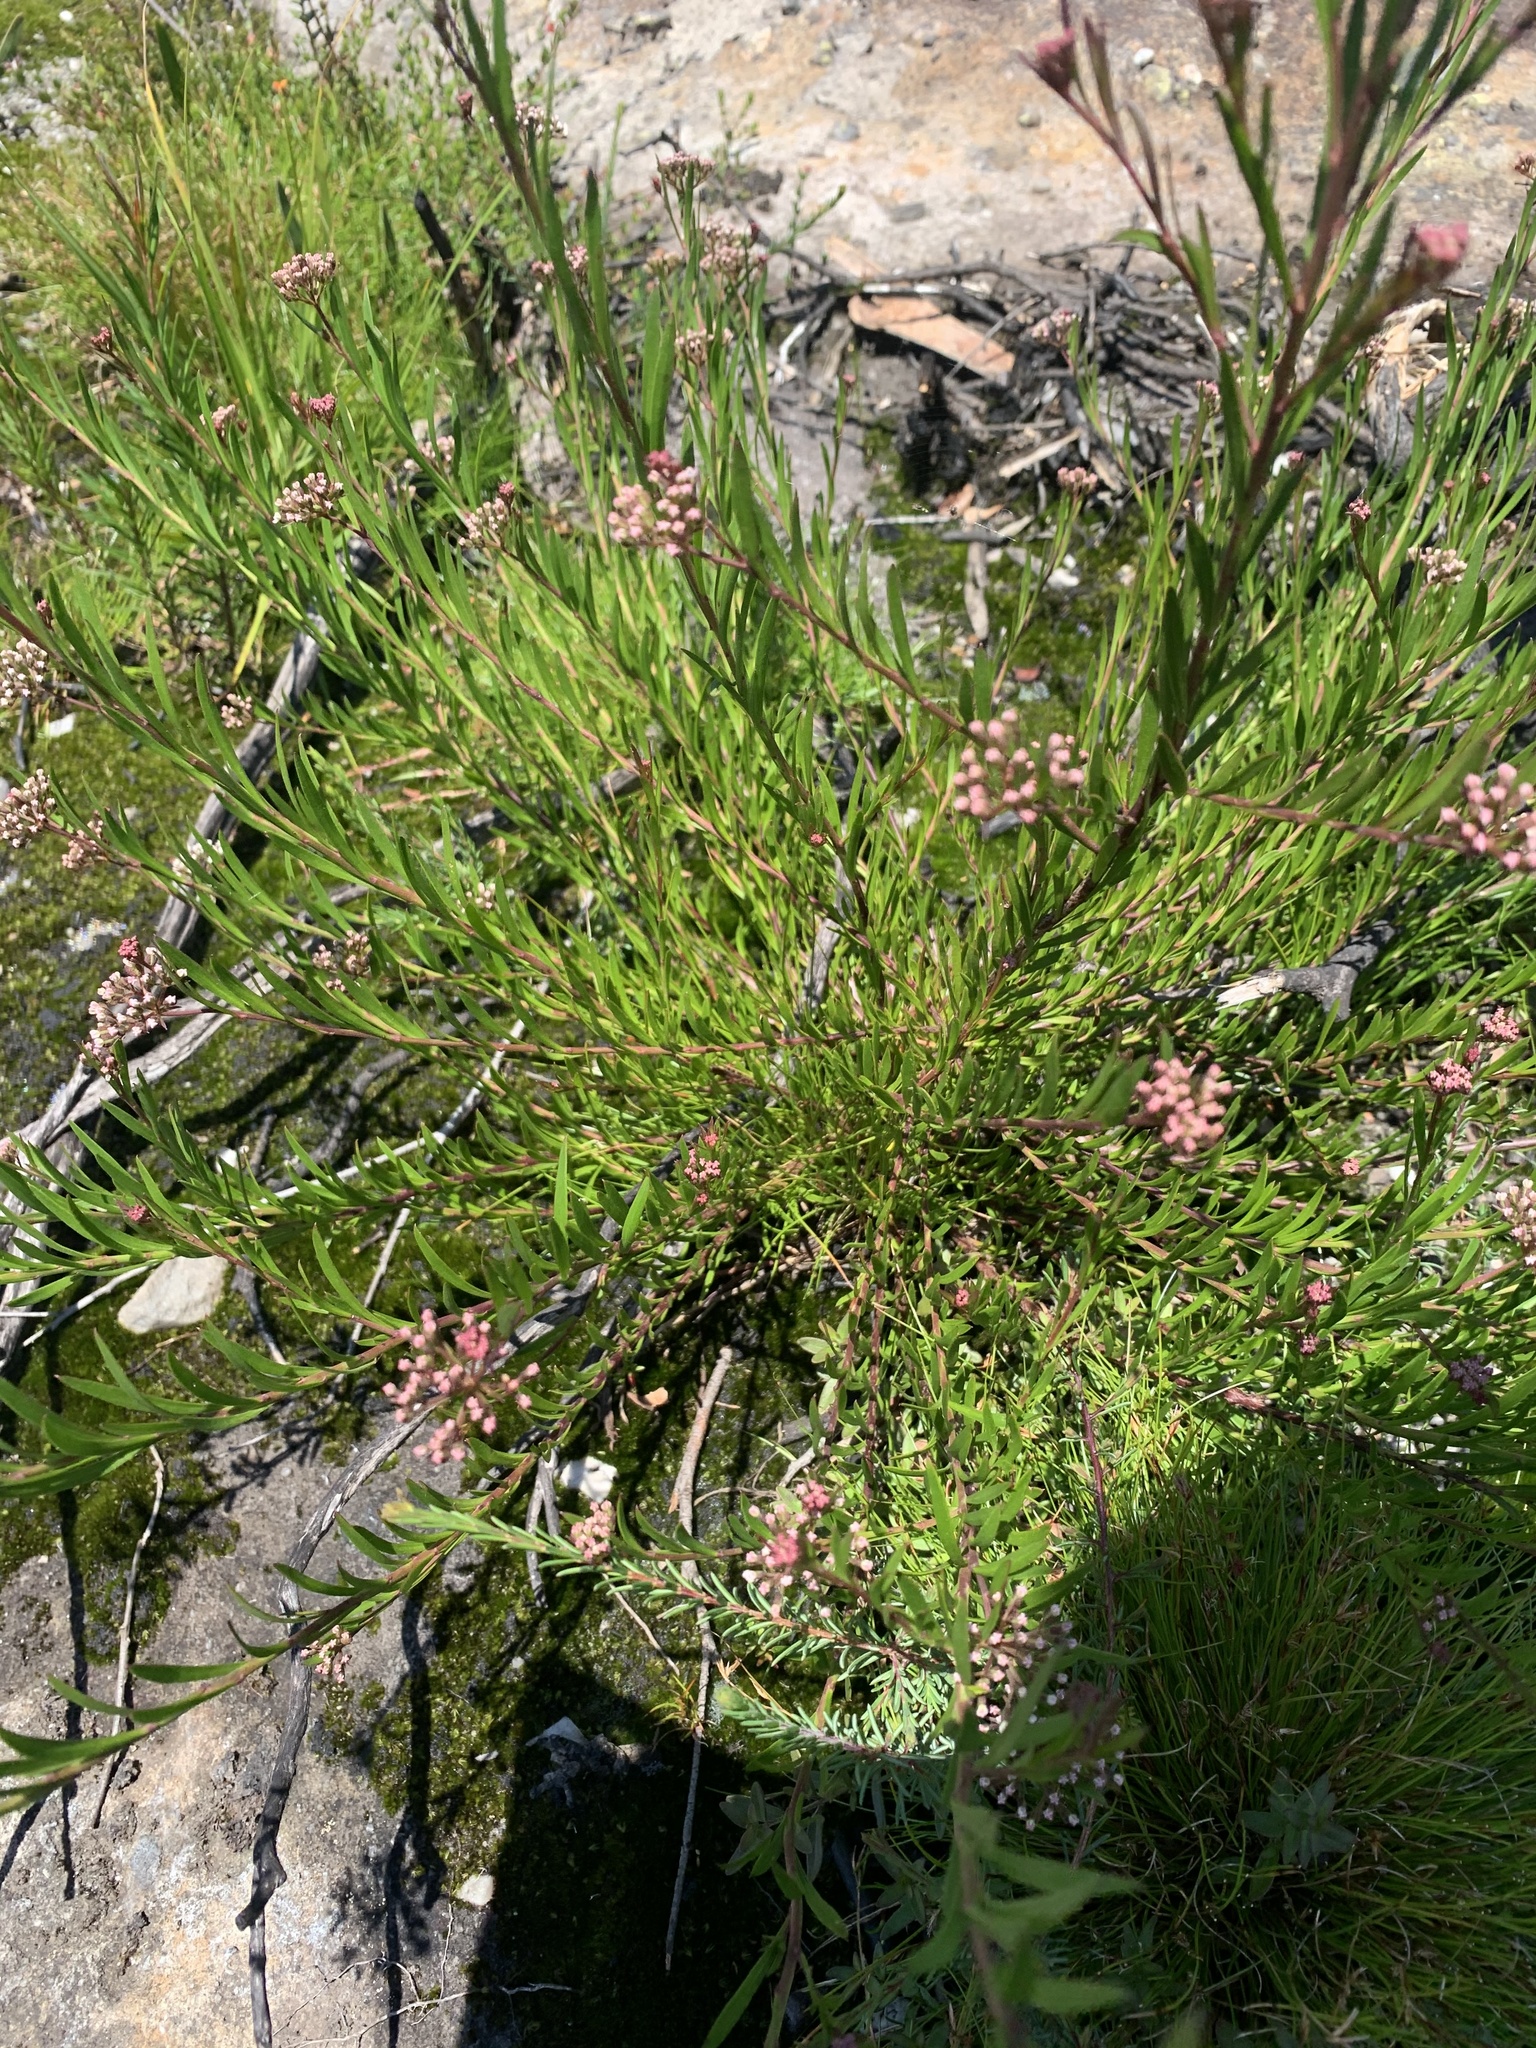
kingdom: Plantae
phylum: Tracheophyta
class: Magnoliopsida
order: Apiales
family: Apiaceae
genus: Platysace
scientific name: Platysace lanceolata
